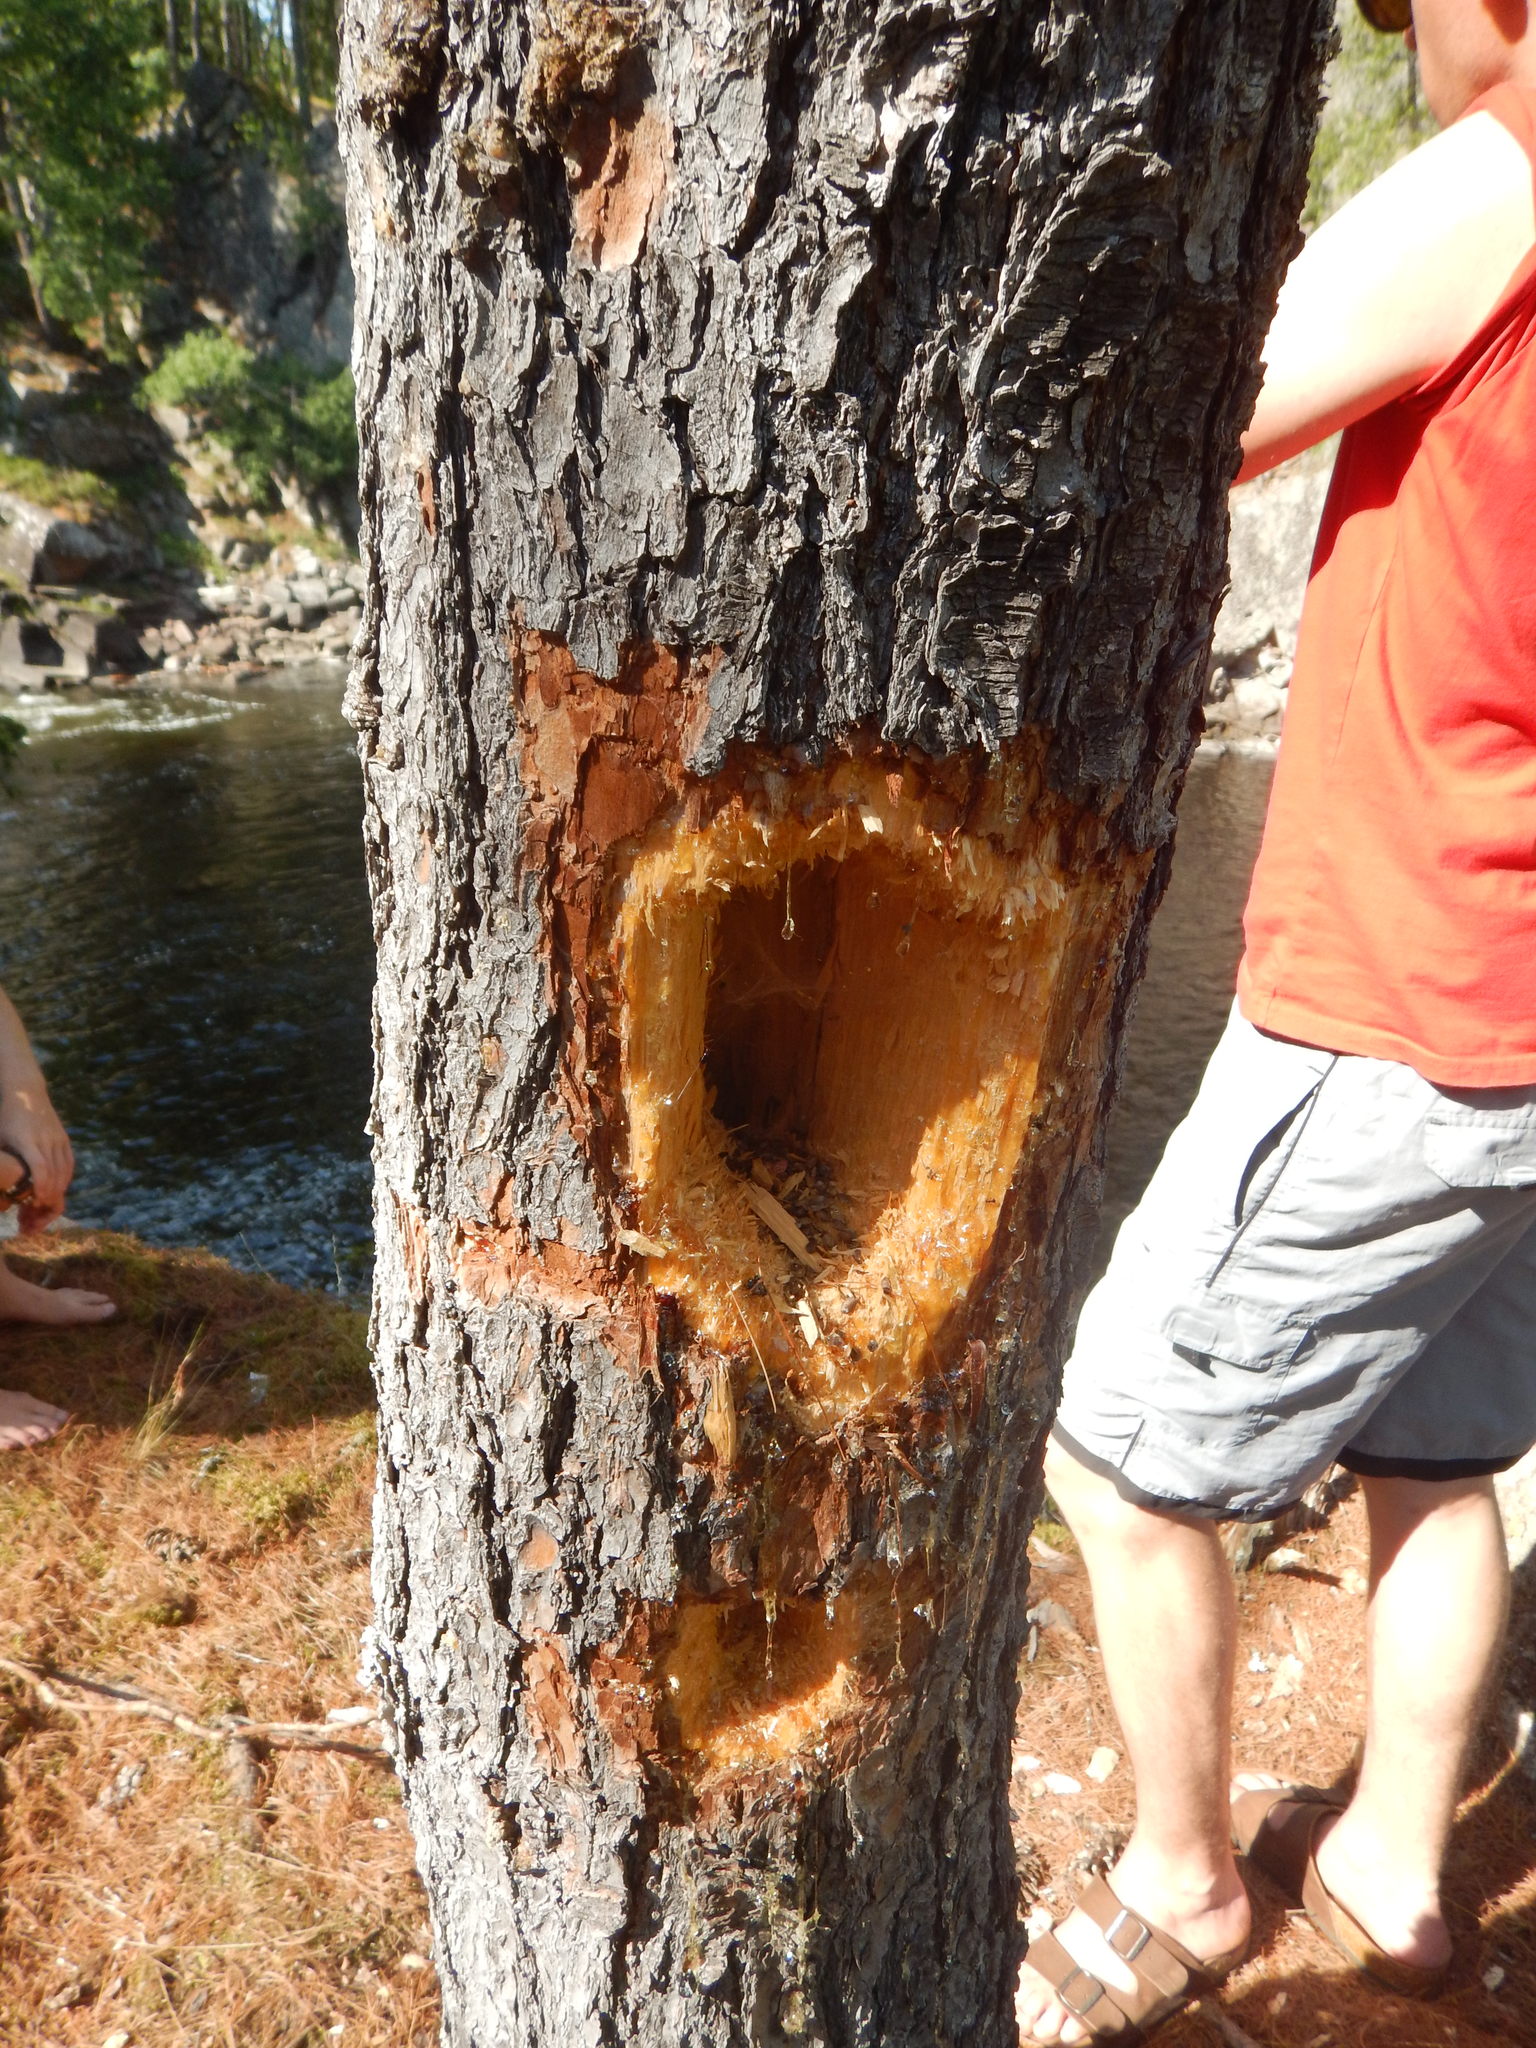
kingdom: Animalia
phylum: Chordata
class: Aves
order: Piciformes
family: Picidae
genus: Dryocopus
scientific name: Dryocopus pileatus
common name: Pileated woodpecker
